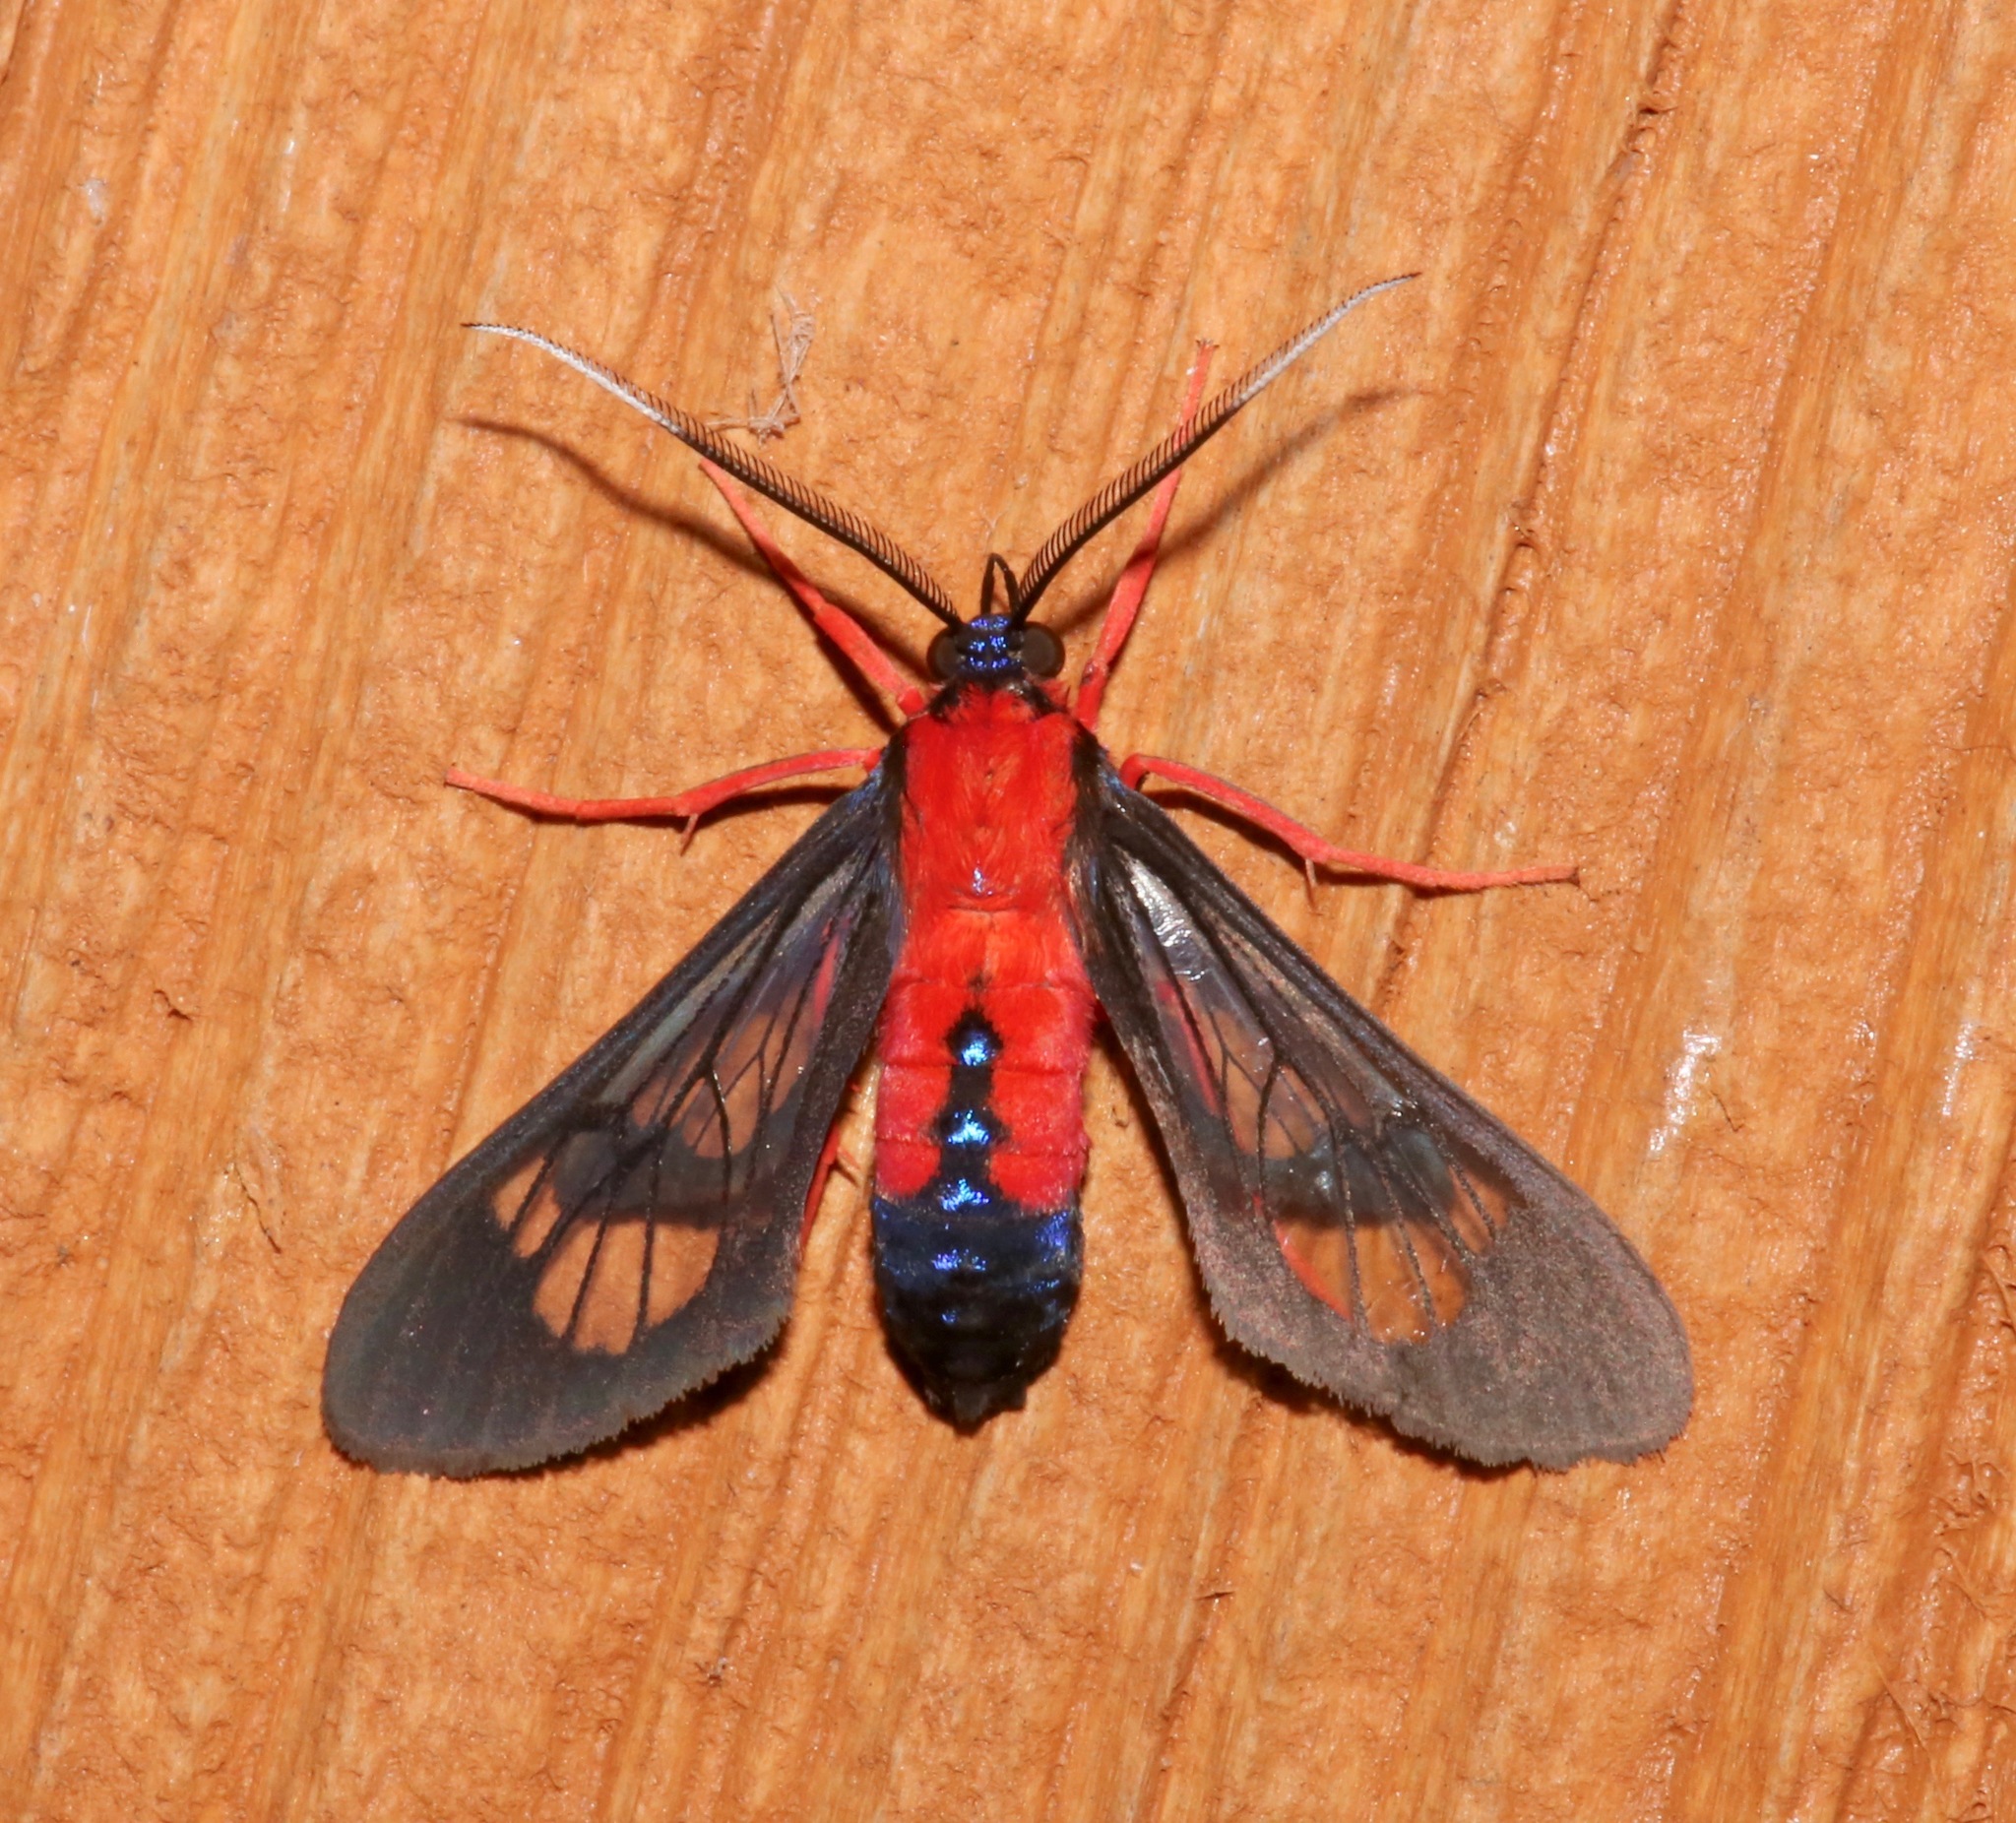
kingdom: Animalia
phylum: Arthropoda
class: Insecta
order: Lepidoptera
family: Erebidae
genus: Cosmosoma
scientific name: Cosmosoma myrodora
